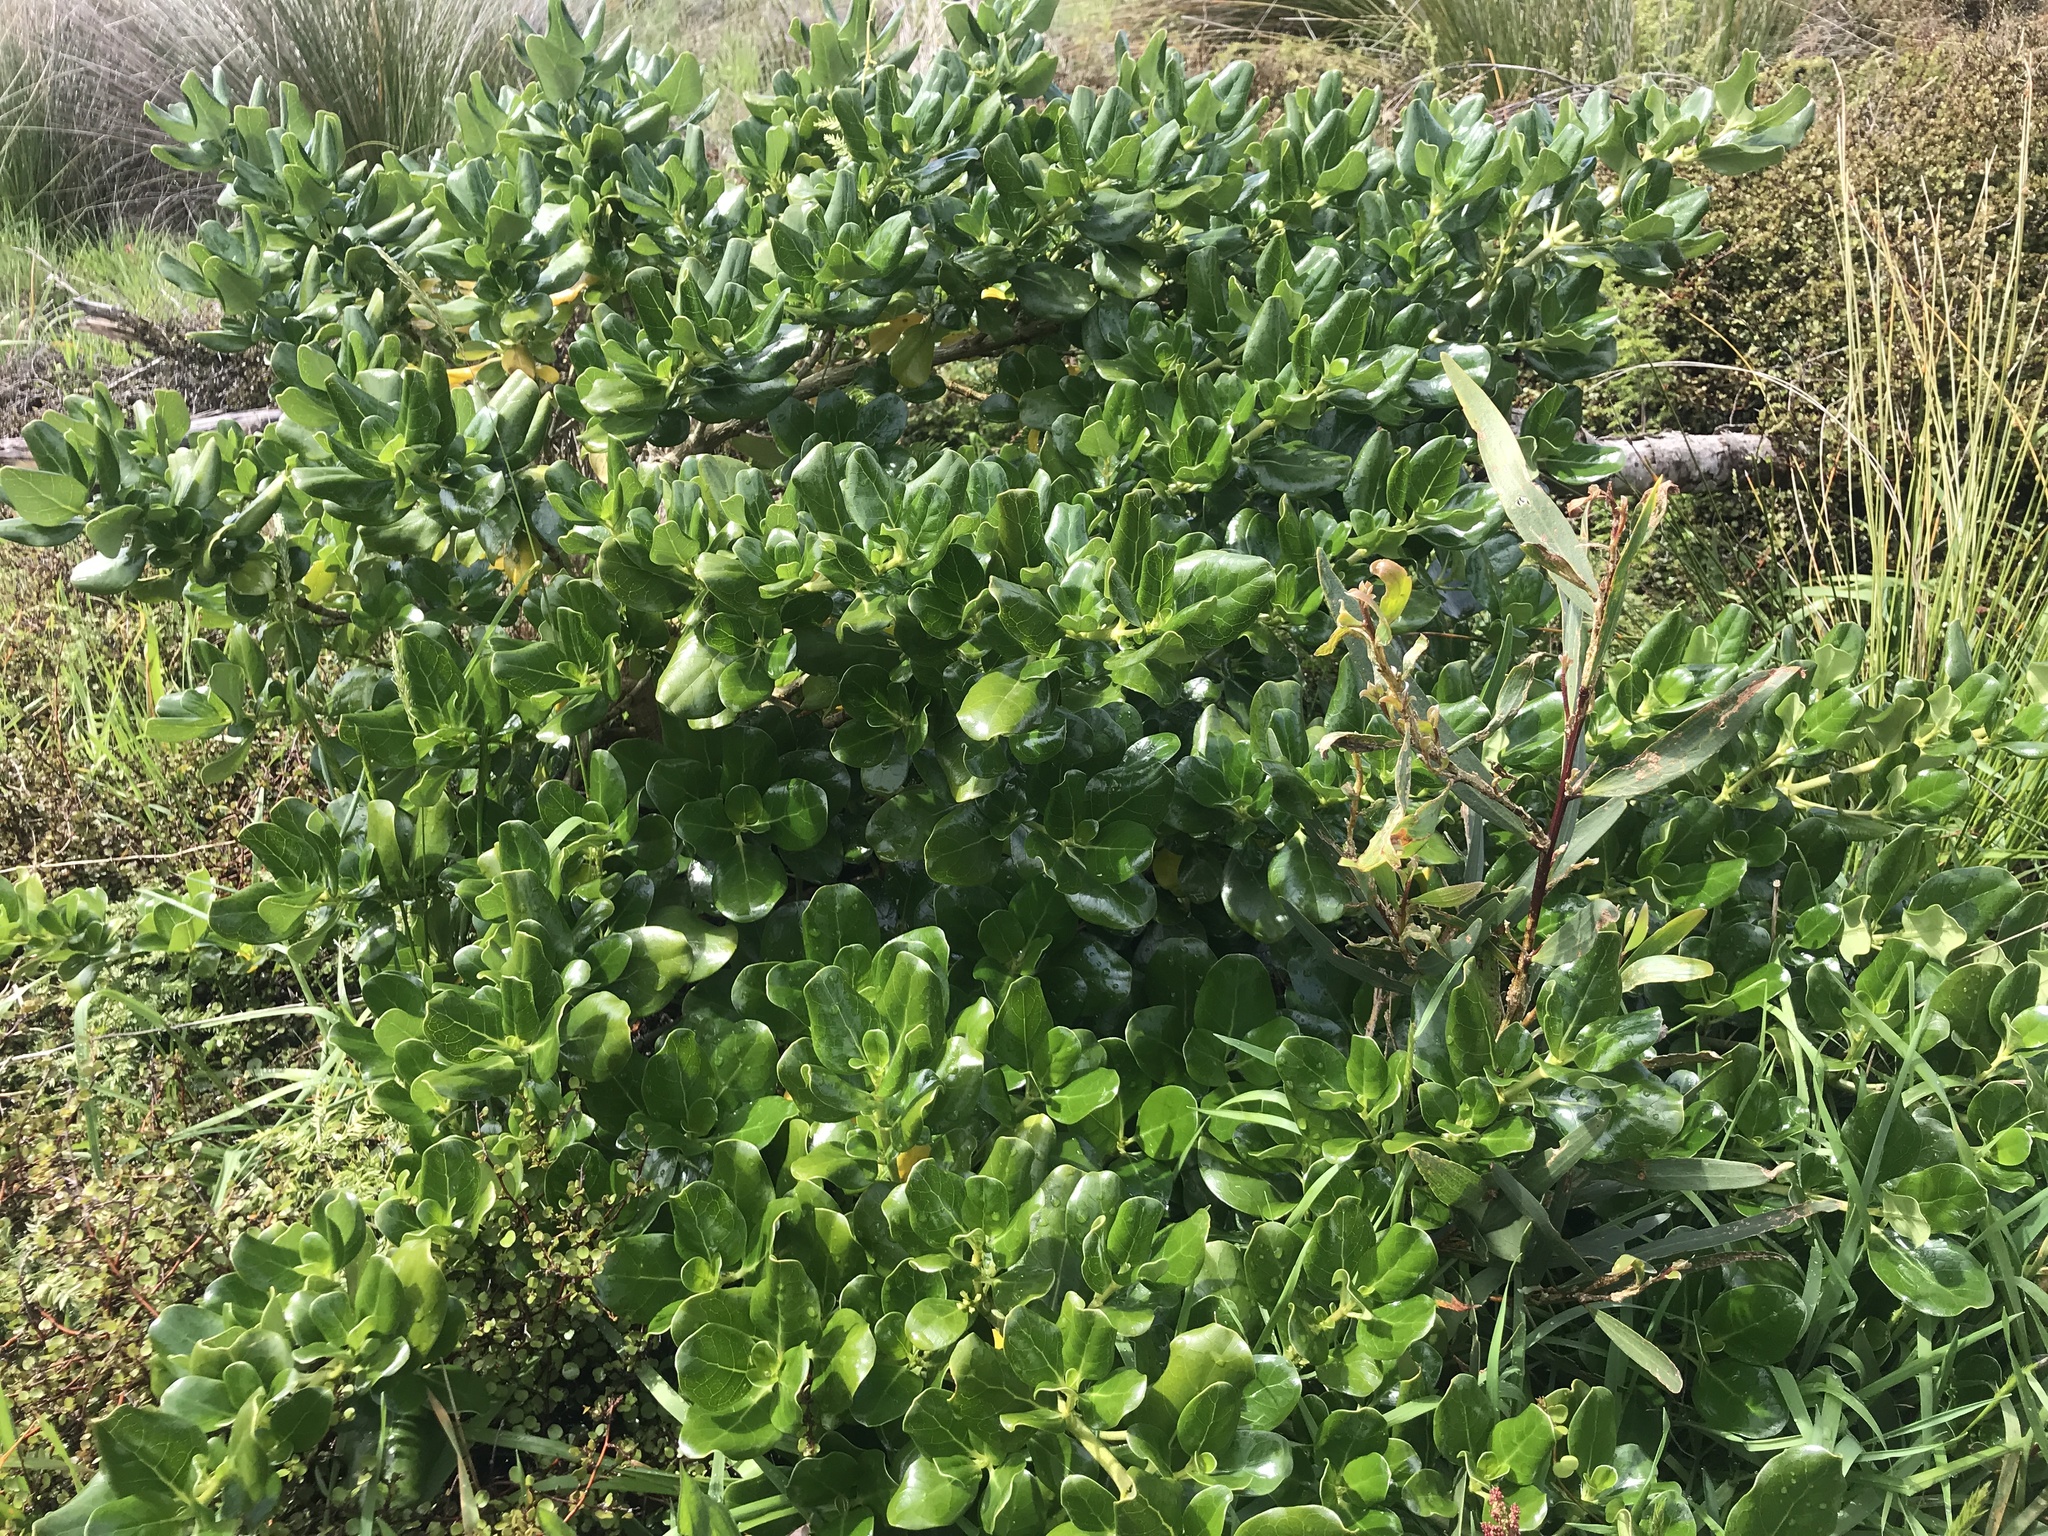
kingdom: Plantae
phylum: Tracheophyta
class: Magnoliopsida
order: Gentianales
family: Rubiaceae
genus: Coprosma
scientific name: Coprosma repens
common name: Tree bedstraw
